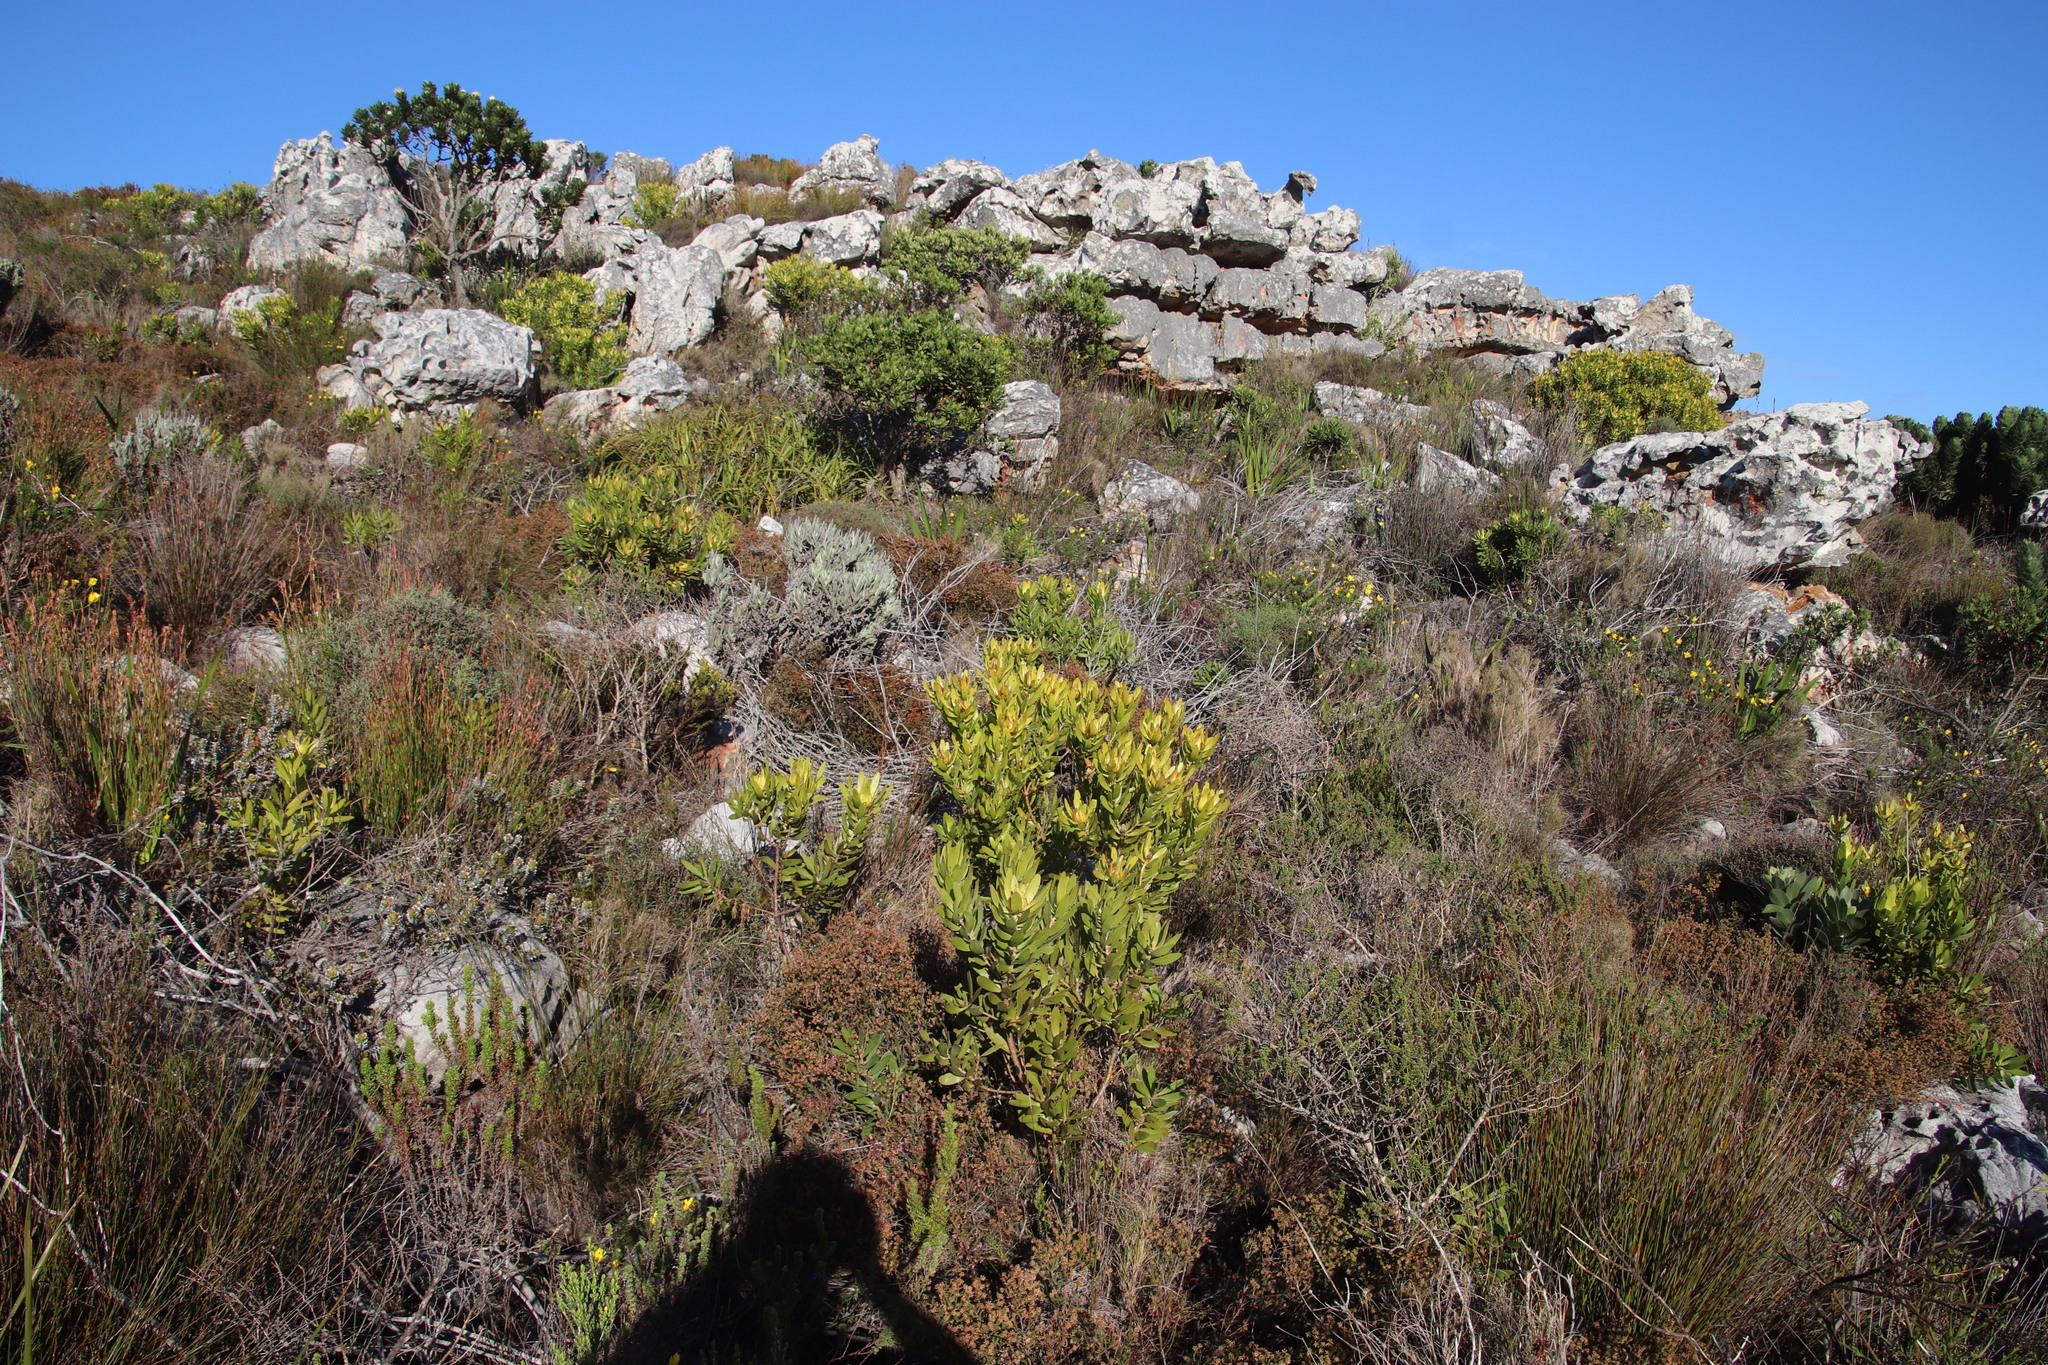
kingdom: Plantae
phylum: Tracheophyta
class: Magnoliopsida
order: Proteales
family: Proteaceae
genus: Leucadendron
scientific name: Leucadendron laureolum
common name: Golden sunshinebush
